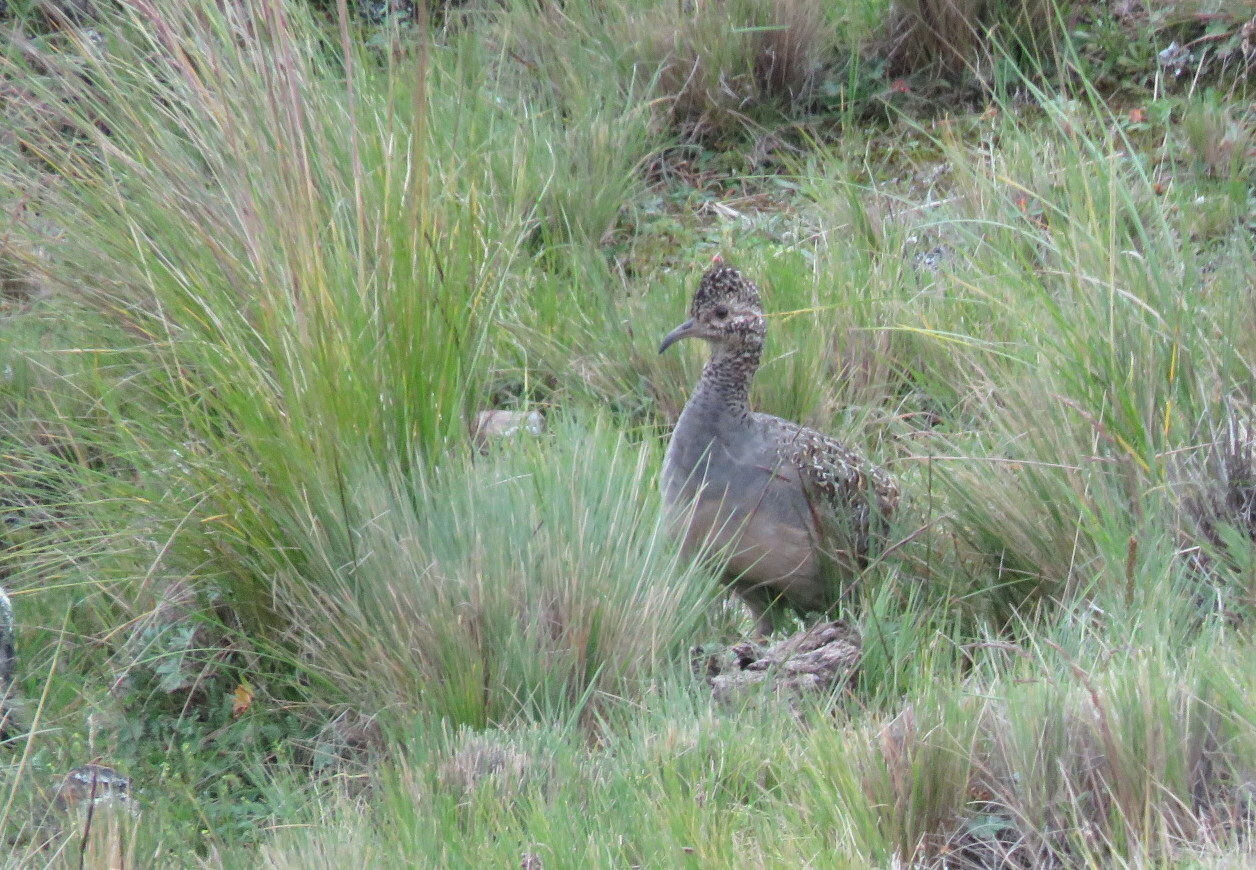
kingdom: Animalia
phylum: Chordata
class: Aves
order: Tinamiformes
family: Tinamidae
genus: Nothoprocta
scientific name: Nothoprocta ornata
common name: Ornate tinamou
